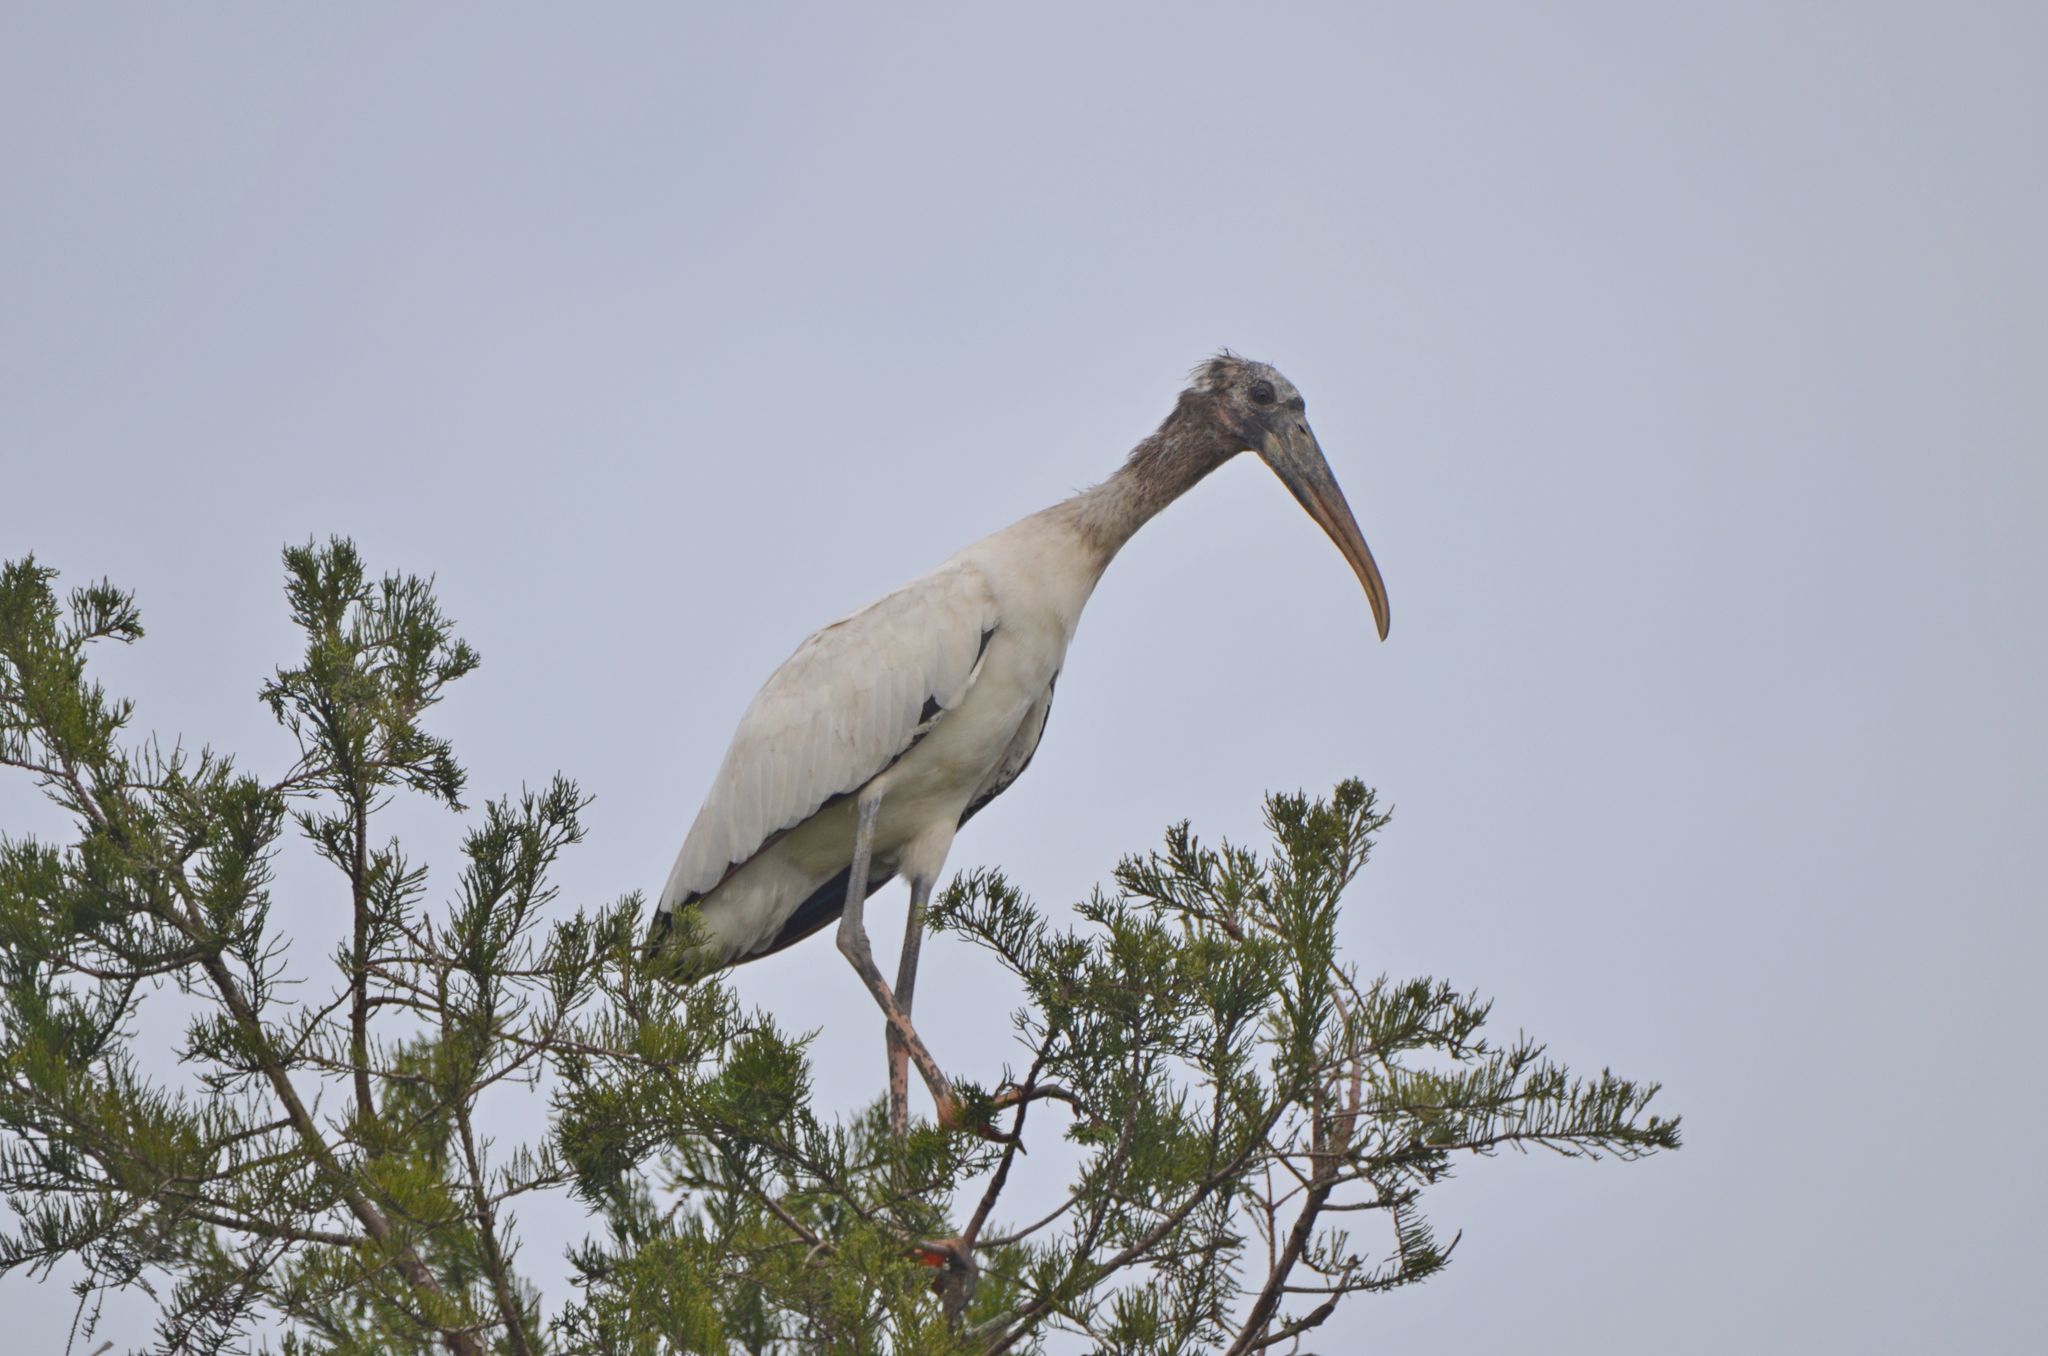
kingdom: Animalia
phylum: Chordata
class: Aves
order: Ciconiiformes
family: Ciconiidae
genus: Mycteria
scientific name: Mycteria americana
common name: Wood stork
